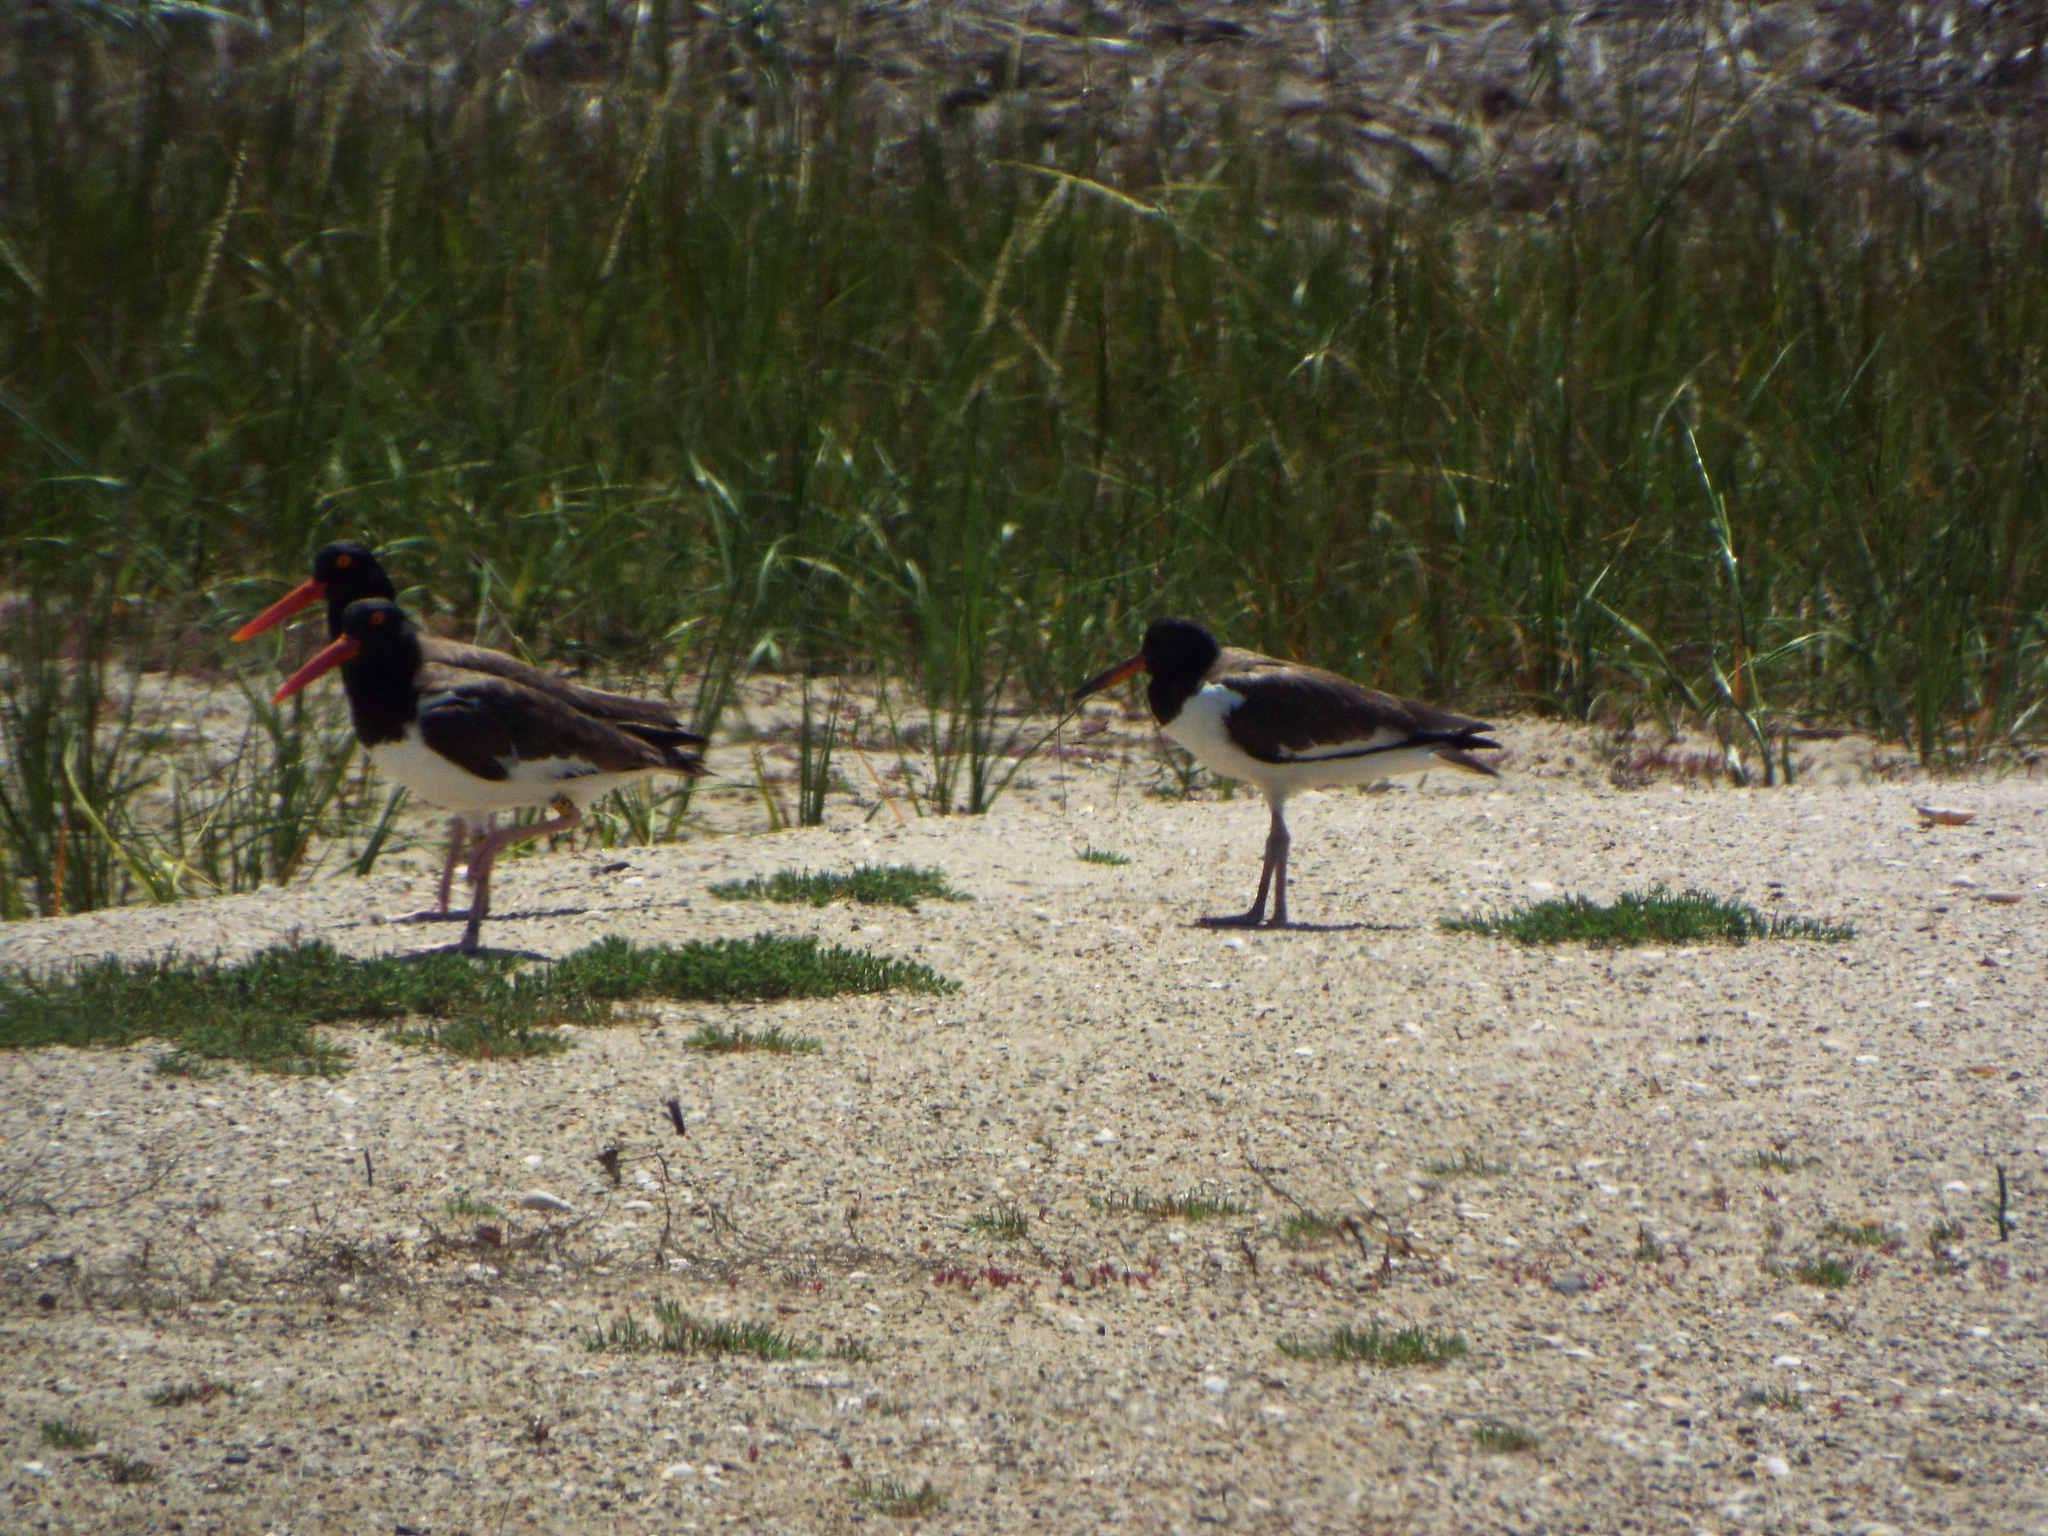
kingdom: Animalia
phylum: Chordata
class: Aves
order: Charadriiformes
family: Haematopodidae
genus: Haematopus
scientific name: Haematopus palliatus
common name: American oystercatcher
